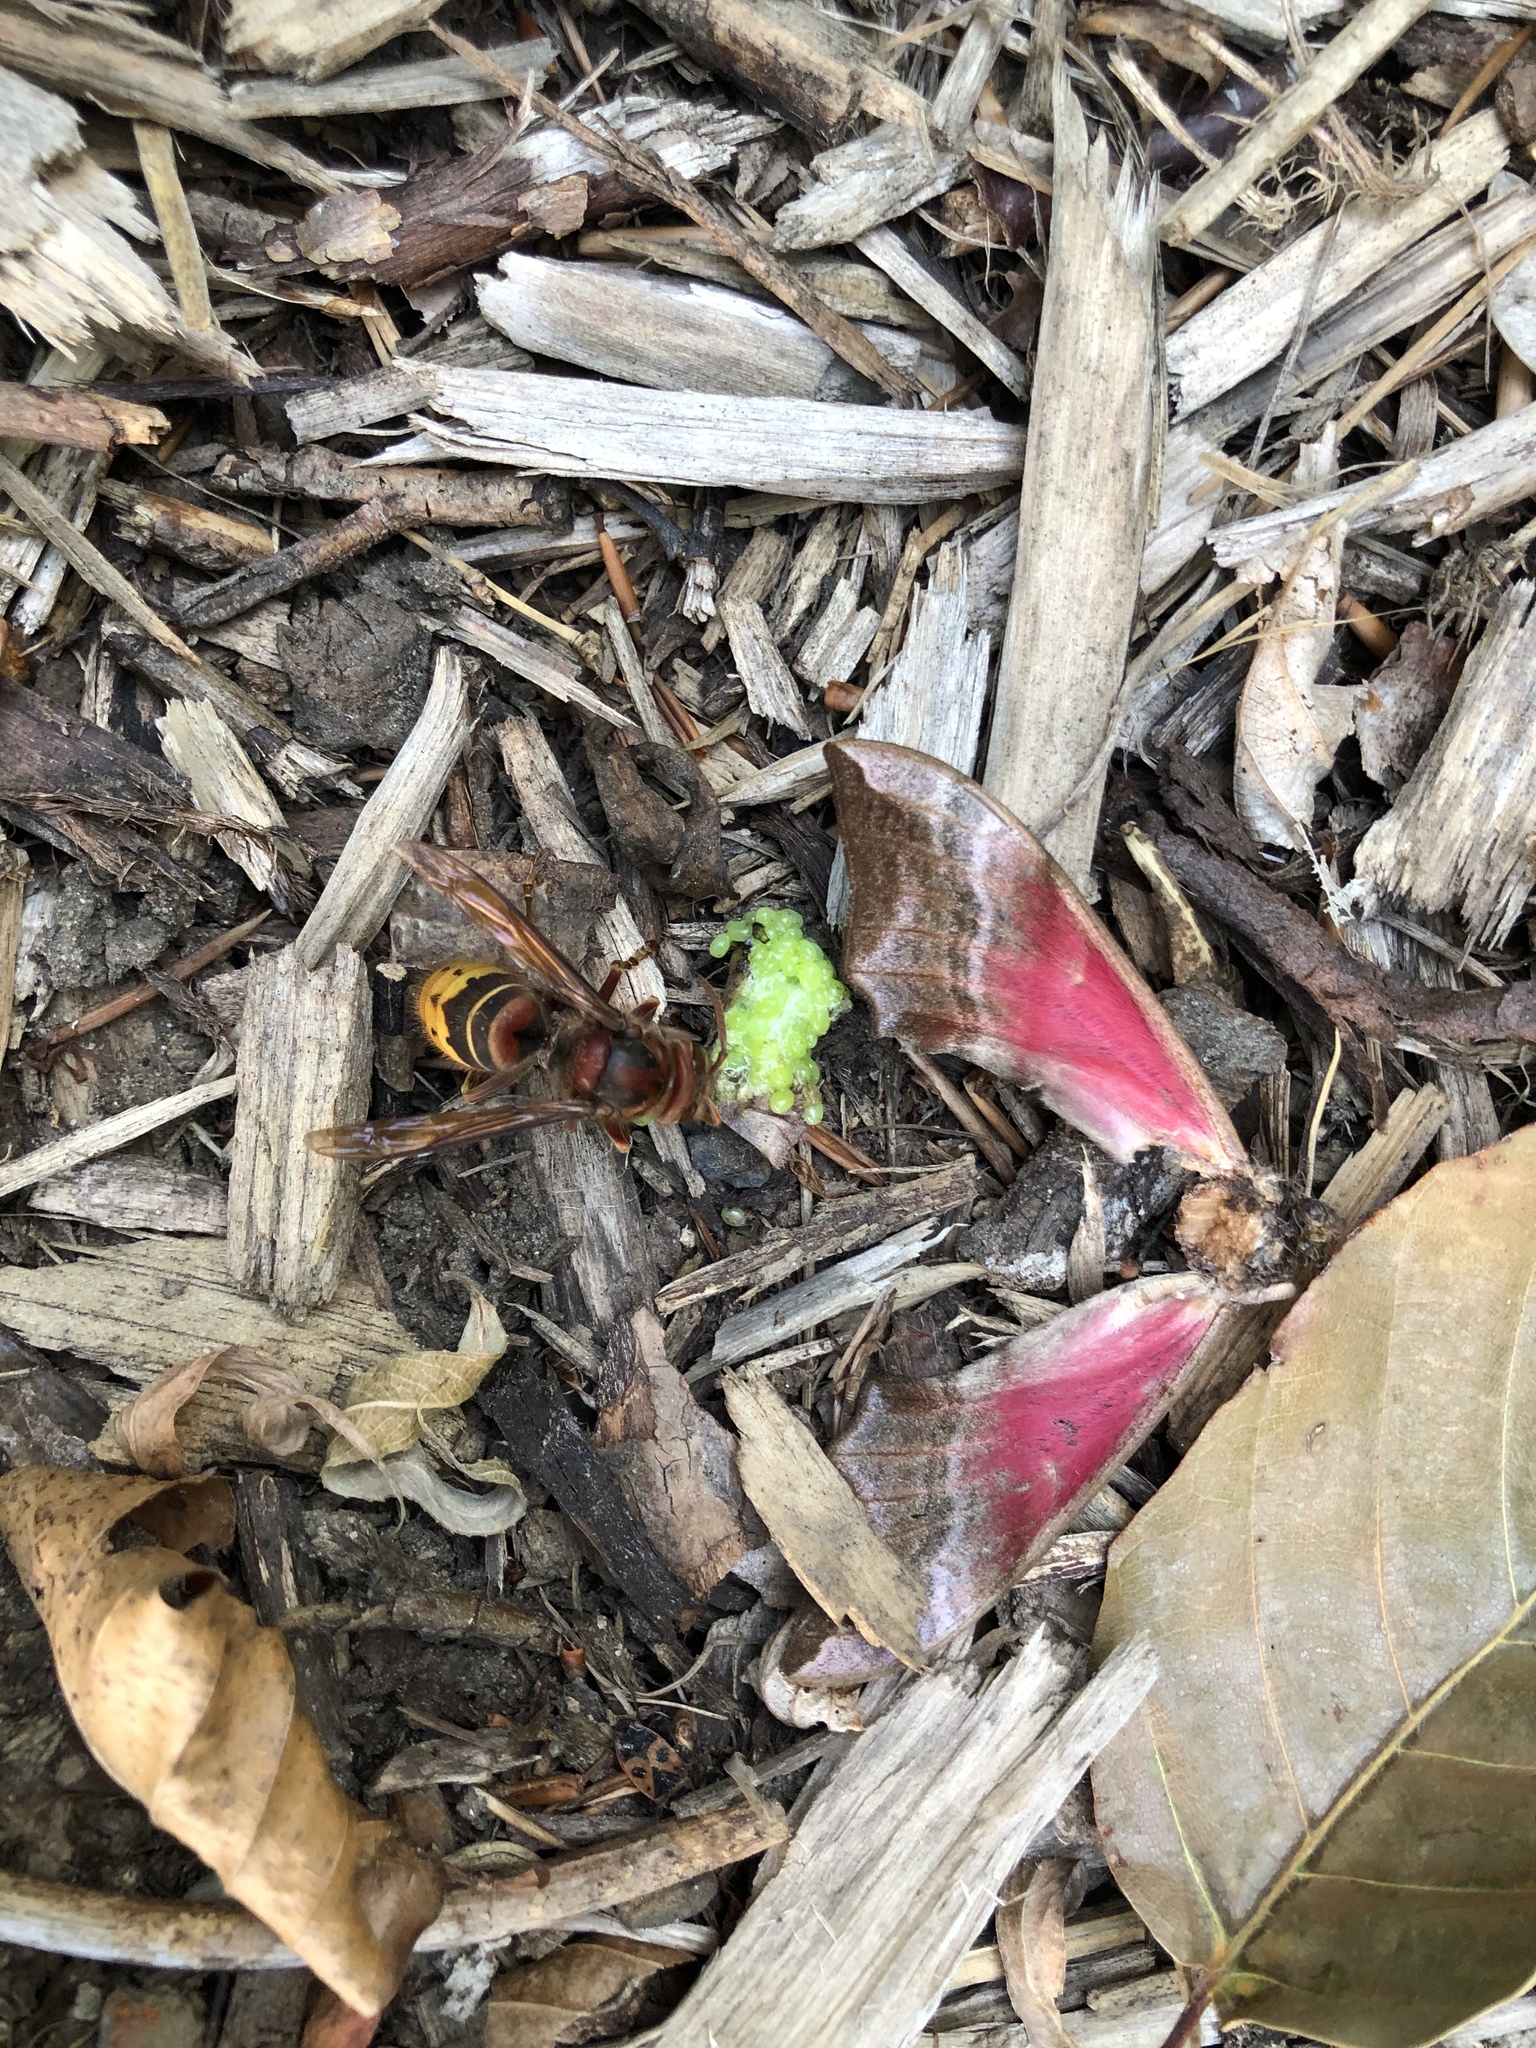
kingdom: Animalia
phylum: Arthropoda
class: Insecta
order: Hymenoptera
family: Vespidae
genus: Vespa
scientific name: Vespa crabro
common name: Hornet
